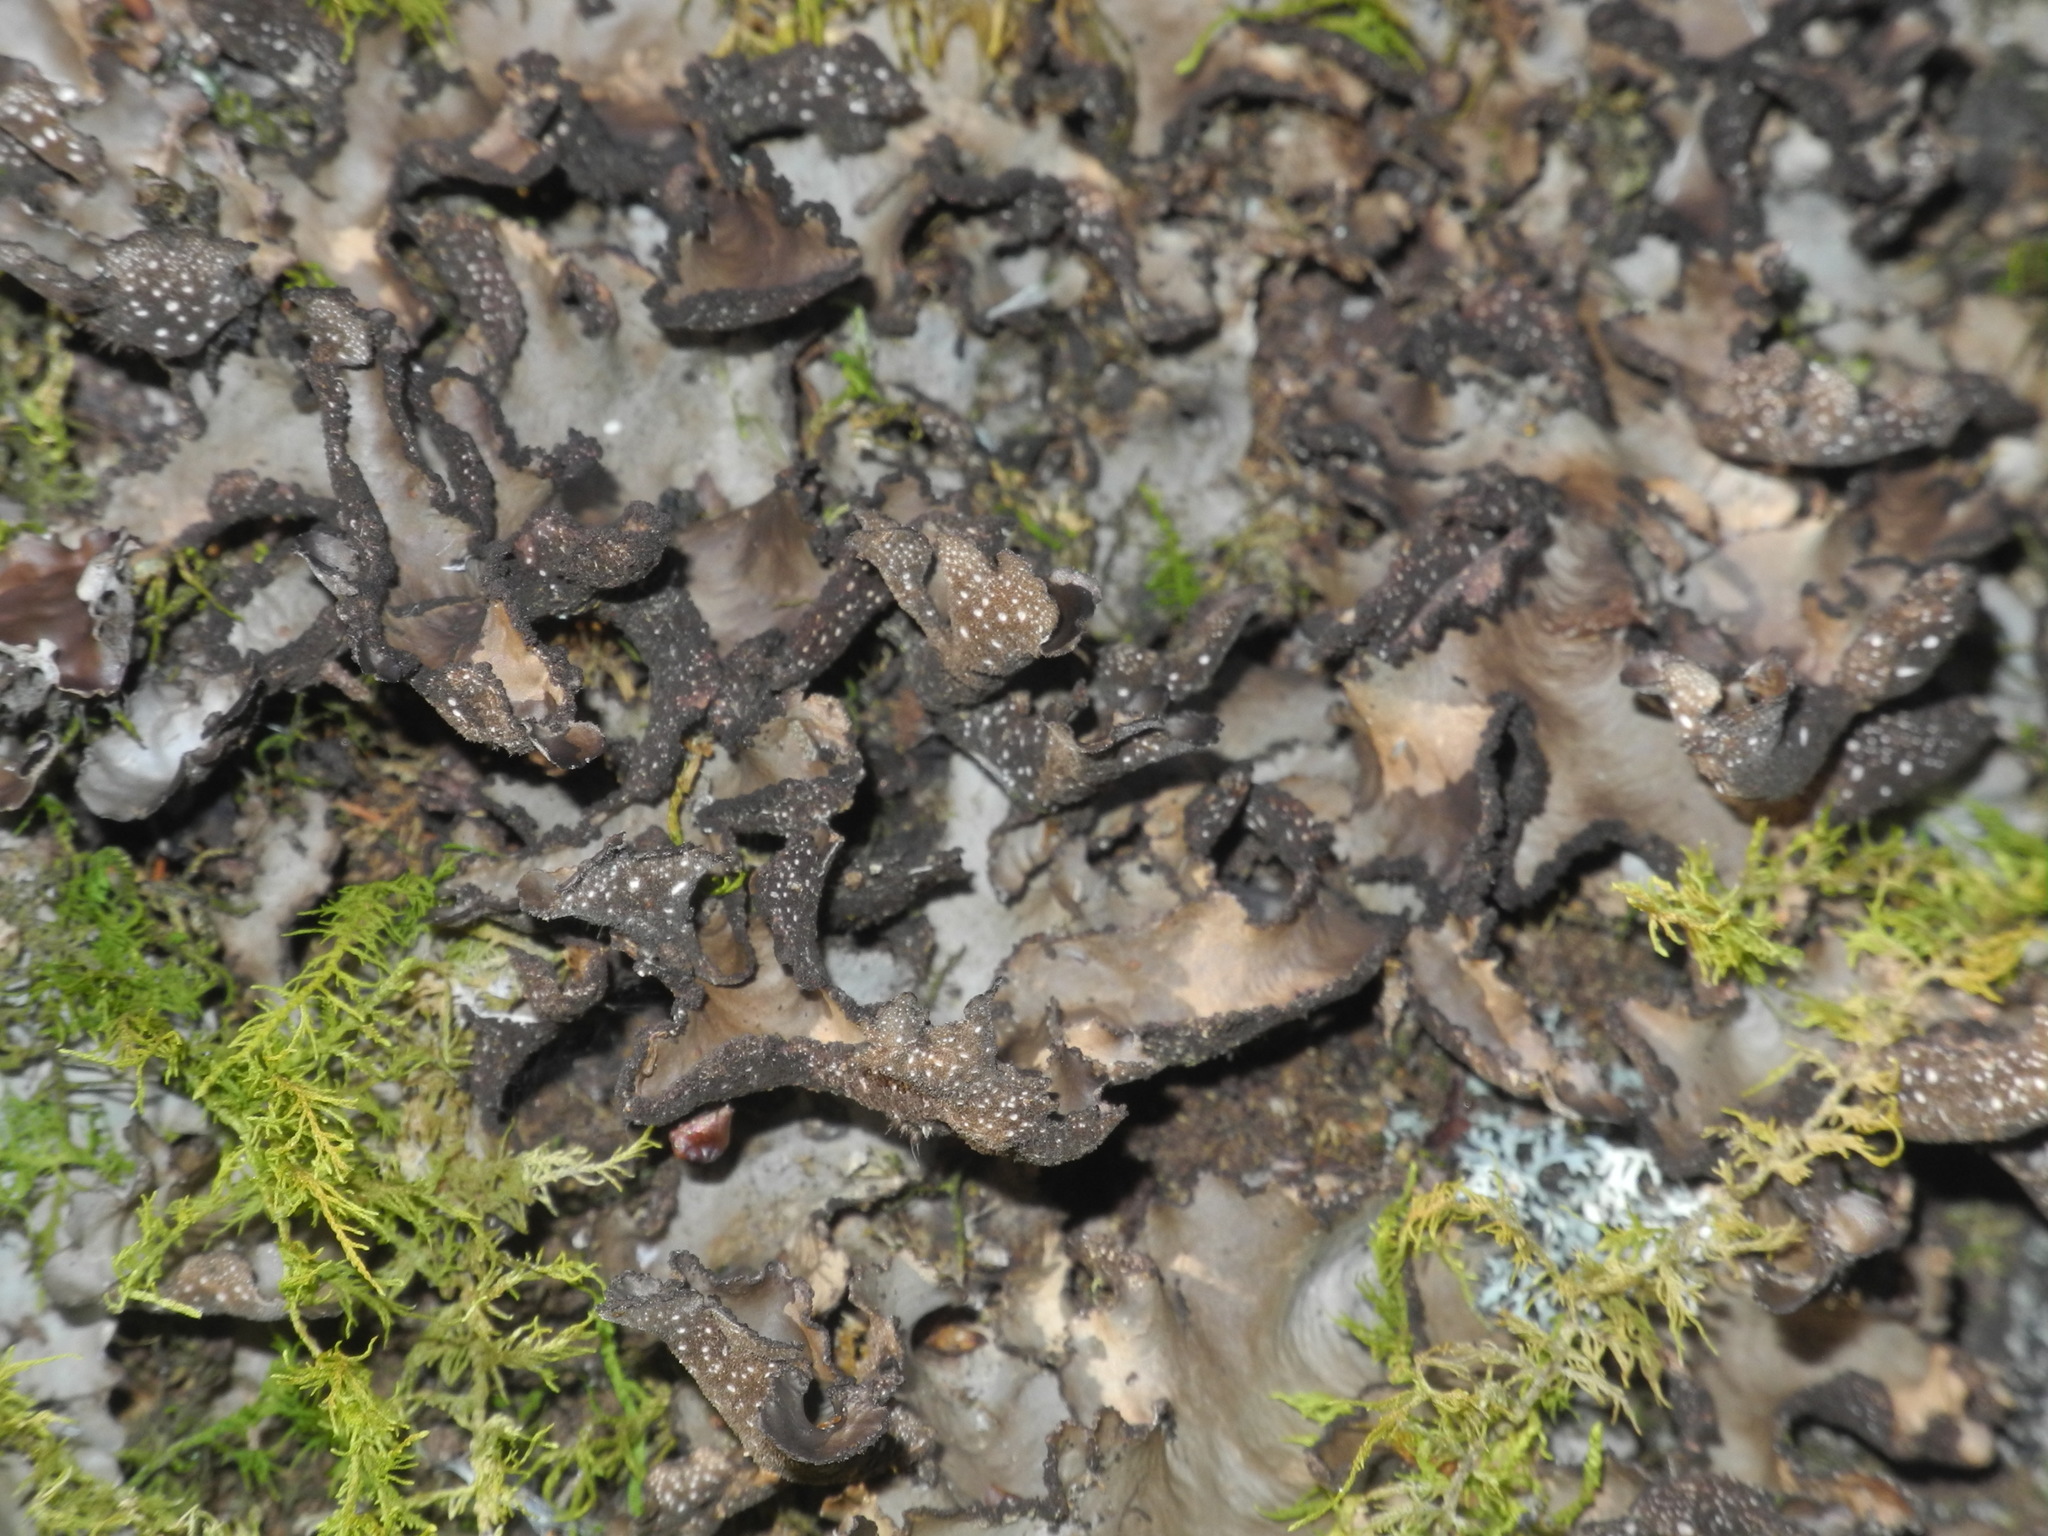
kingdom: Fungi
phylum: Ascomycota
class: Lecanoromycetes
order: Peltigerales
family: Lobariaceae
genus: Sticta
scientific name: Sticta beauvoisii
